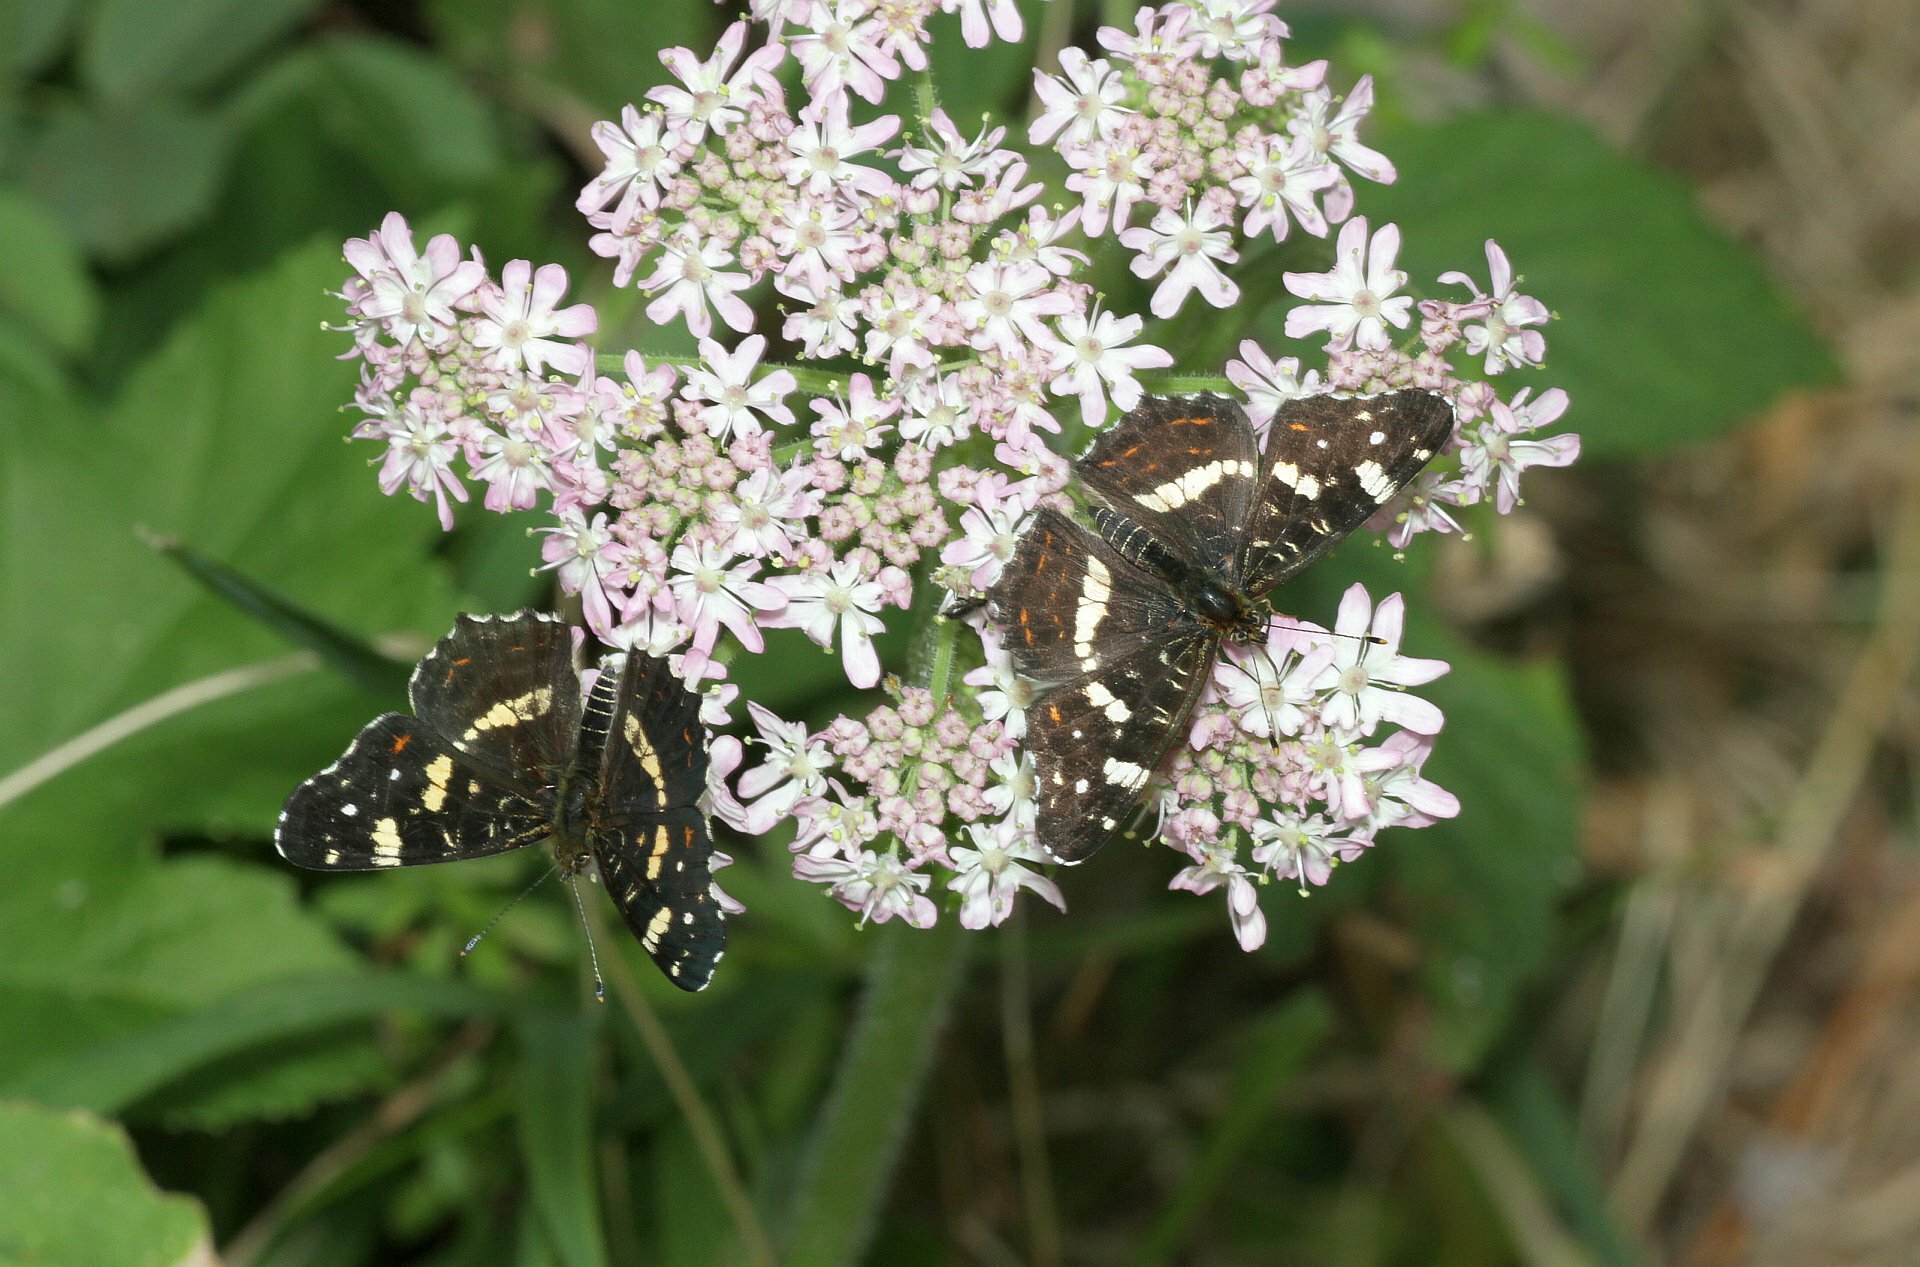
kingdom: Animalia
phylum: Arthropoda
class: Insecta
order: Lepidoptera
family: Nymphalidae
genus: Araschnia
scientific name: Araschnia levana
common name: Map butterfly
